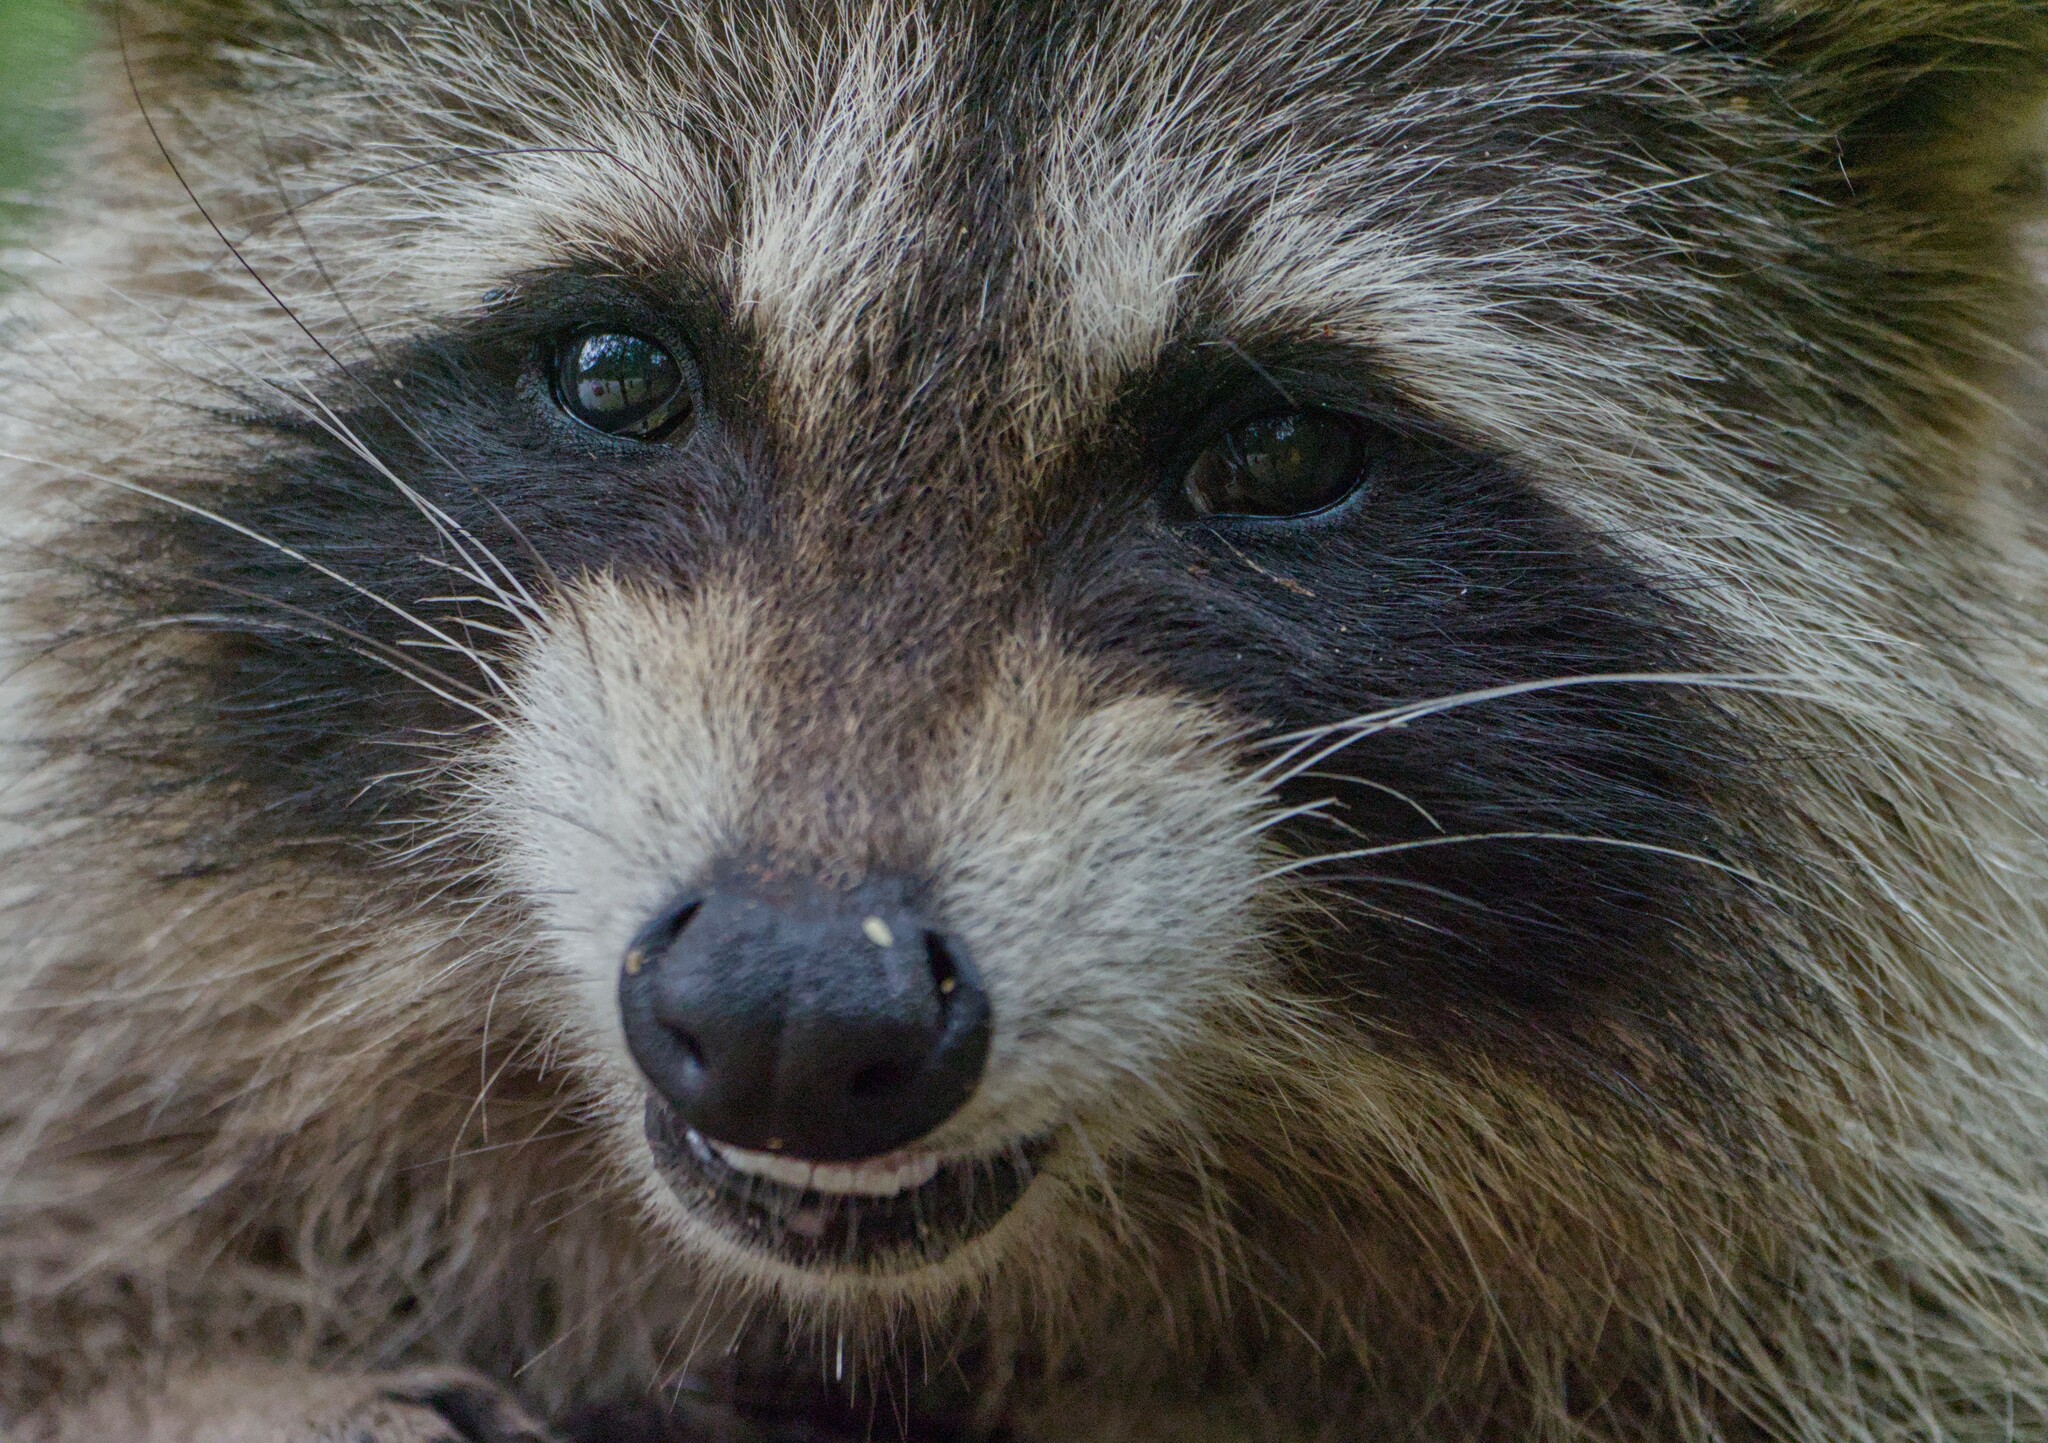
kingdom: Animalia
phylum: Chordata
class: Mammalia
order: Carnivora
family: Procyonidae
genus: Procyon
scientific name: Procyon lotor
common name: Raccoon
